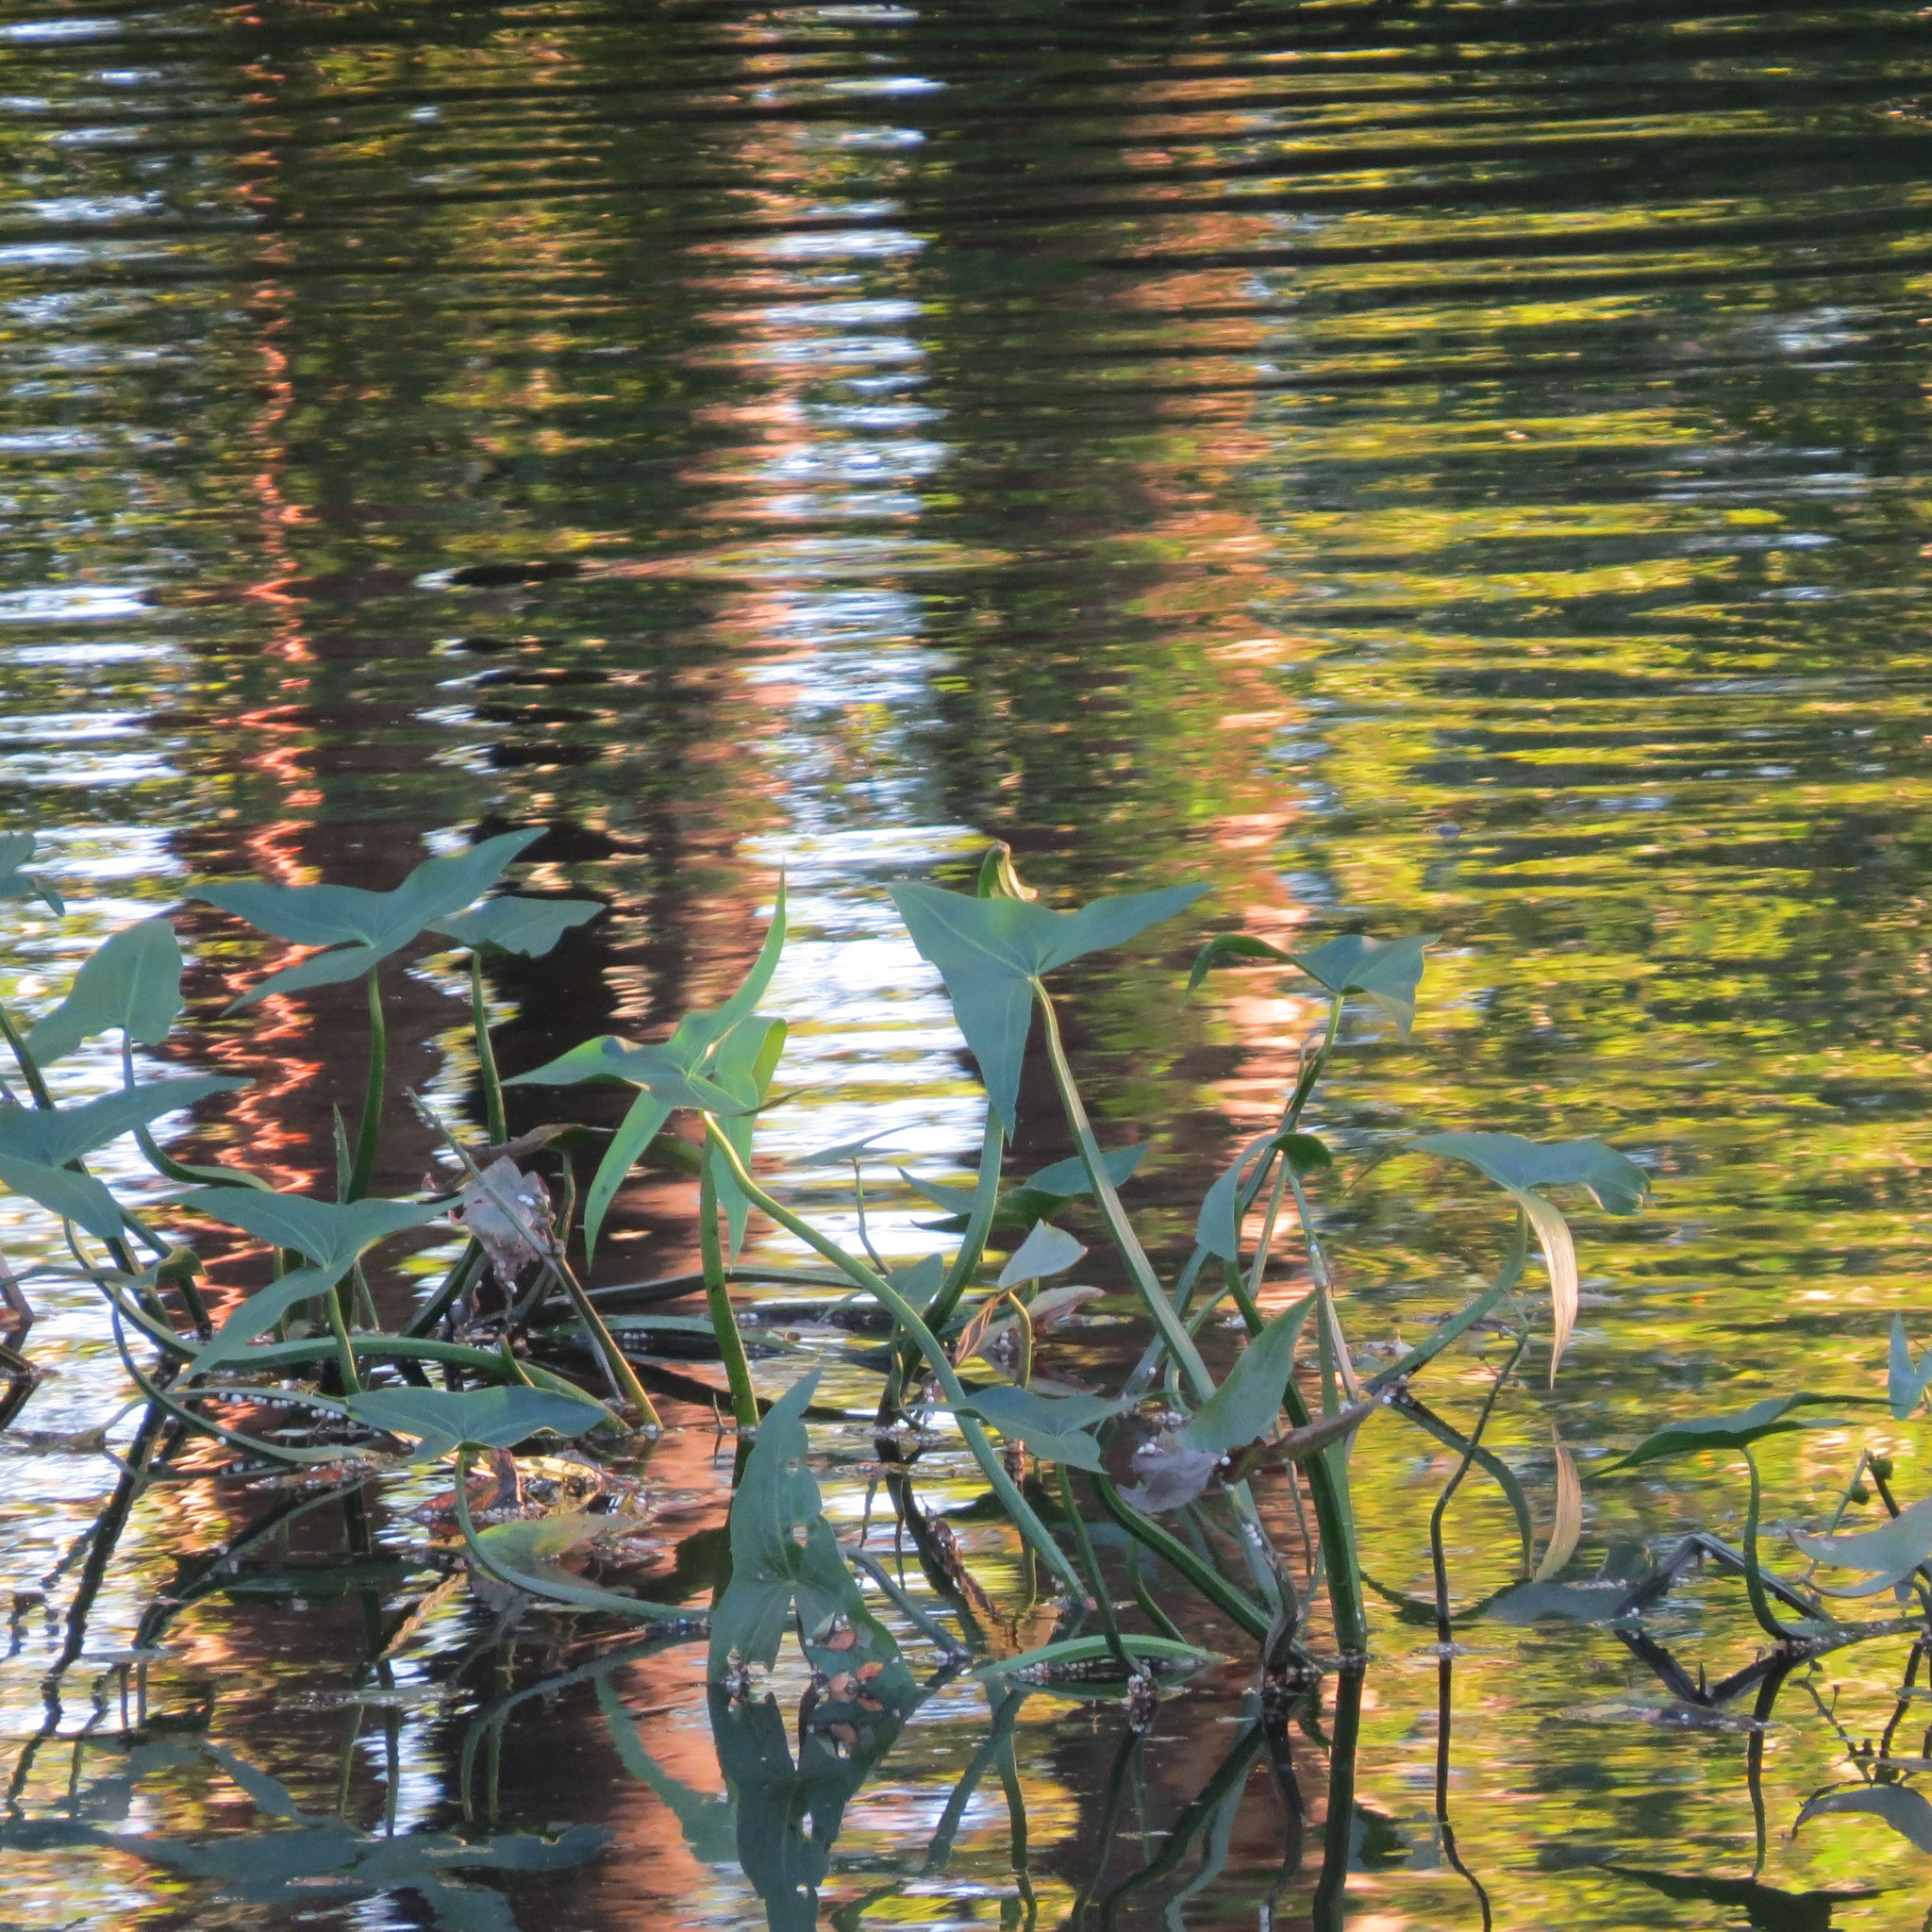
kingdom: Plantae
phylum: Tracheophyta
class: Liliopsida
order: Alismatales
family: Alismataceae
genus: Sagittaria
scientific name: Sagittaria sagittifolia
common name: Arrowhead
